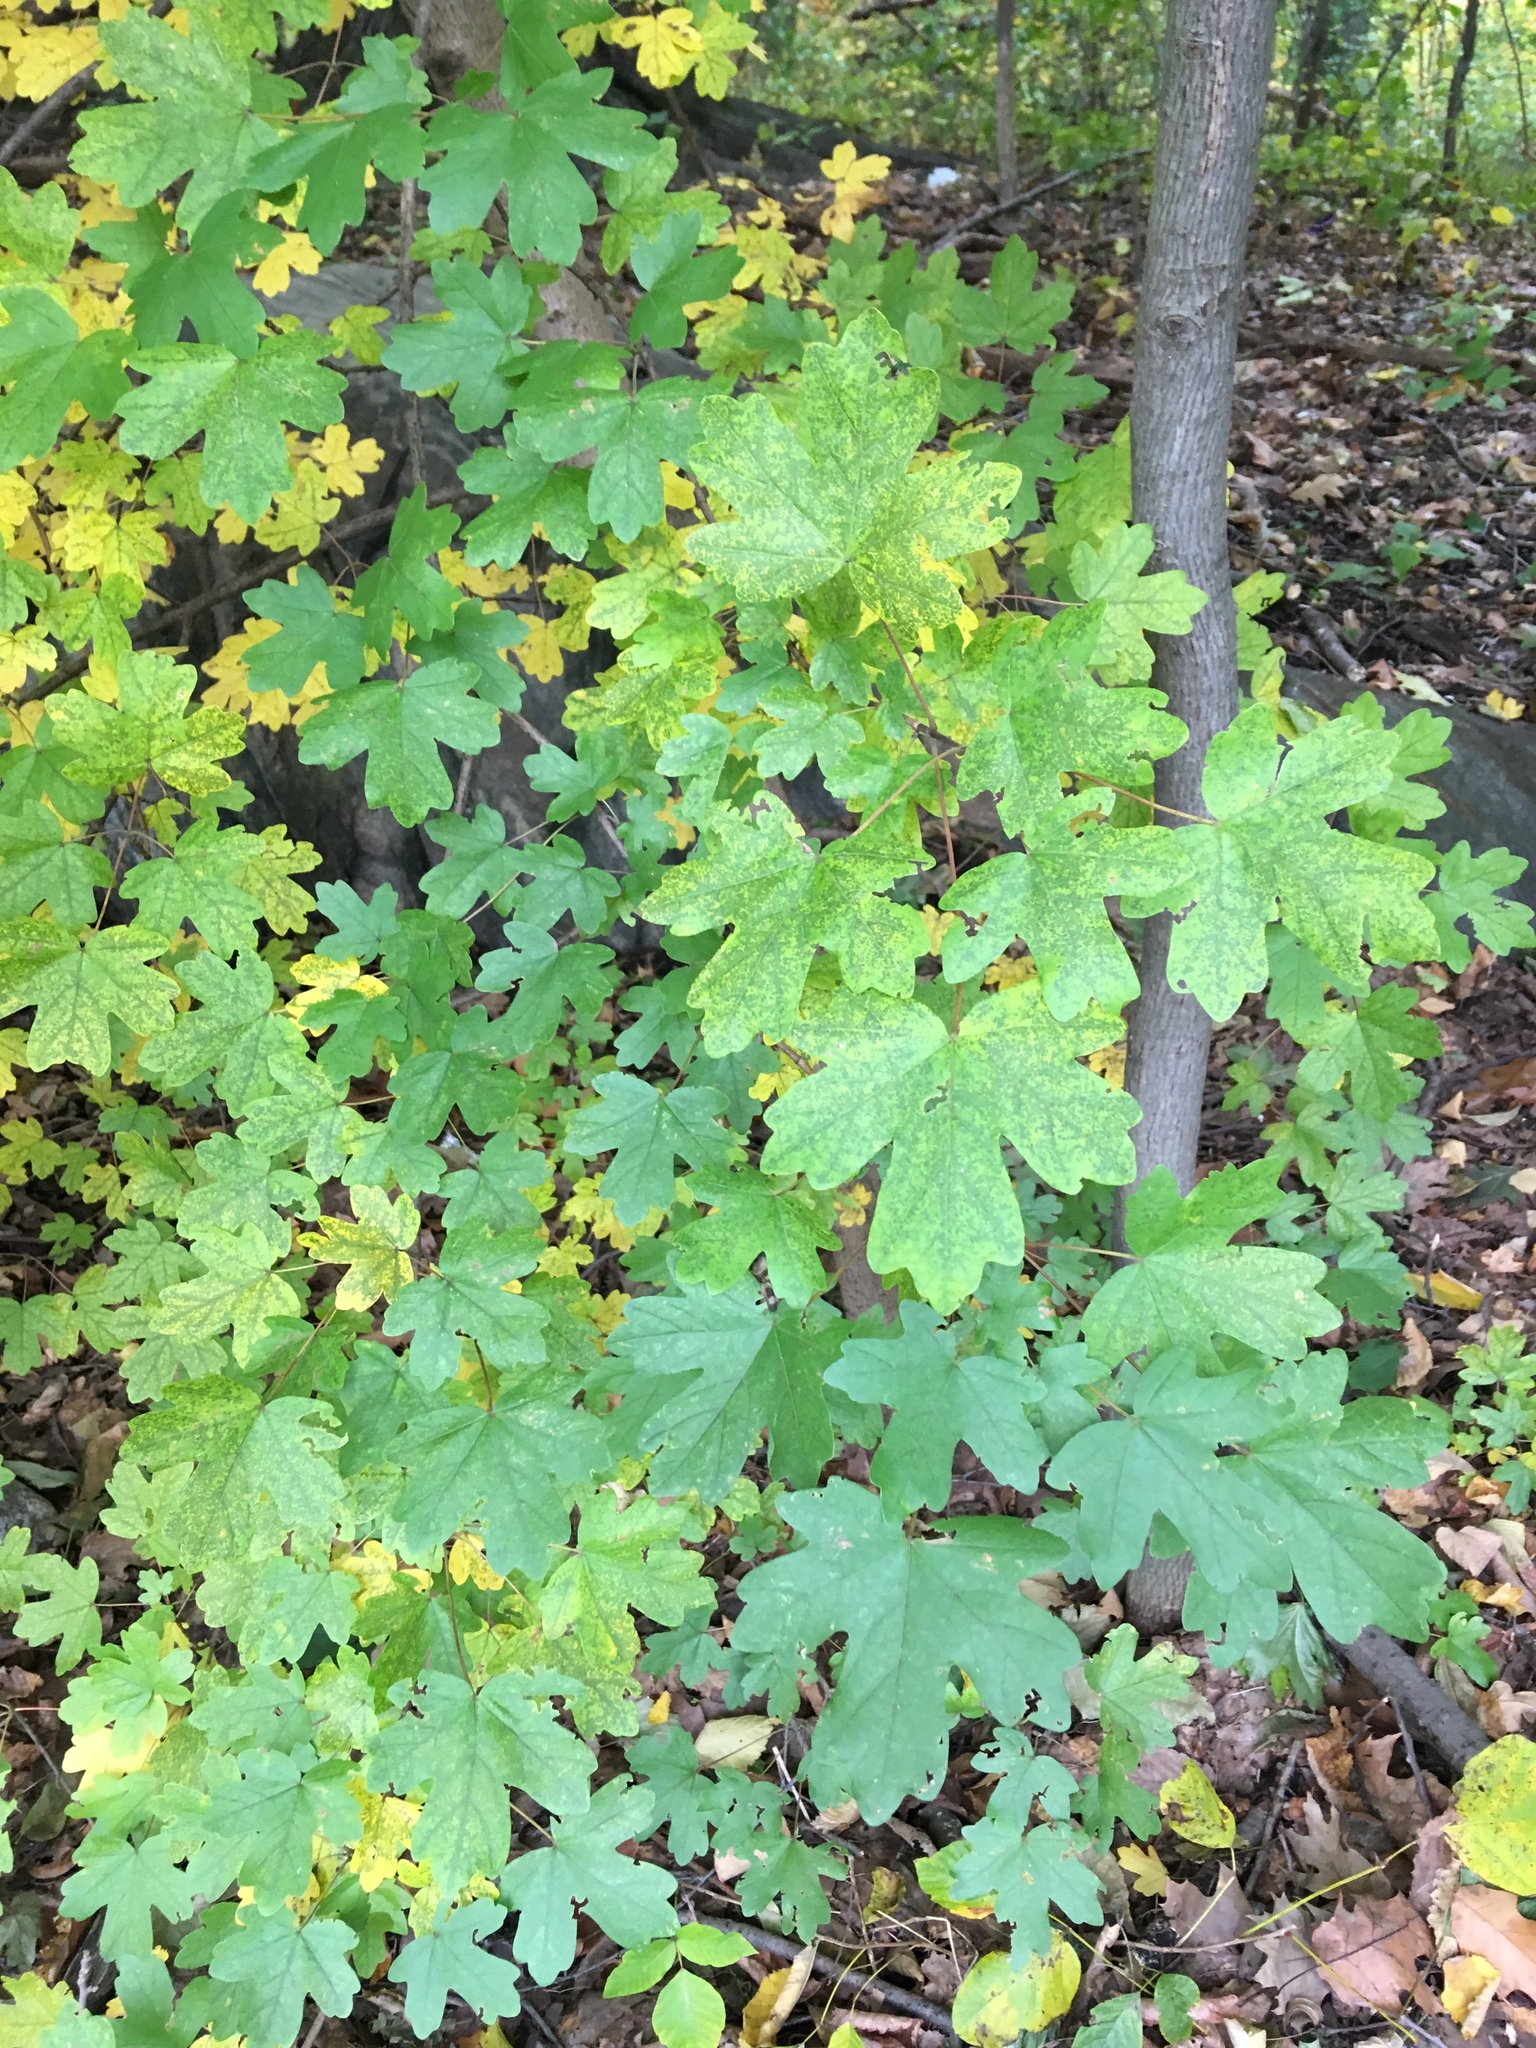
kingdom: Plantae
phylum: Tracheophyta
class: Magnoliopsida
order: Sapindales
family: Sapindaceae
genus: Acer
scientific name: Acer campestre
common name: Field maple
